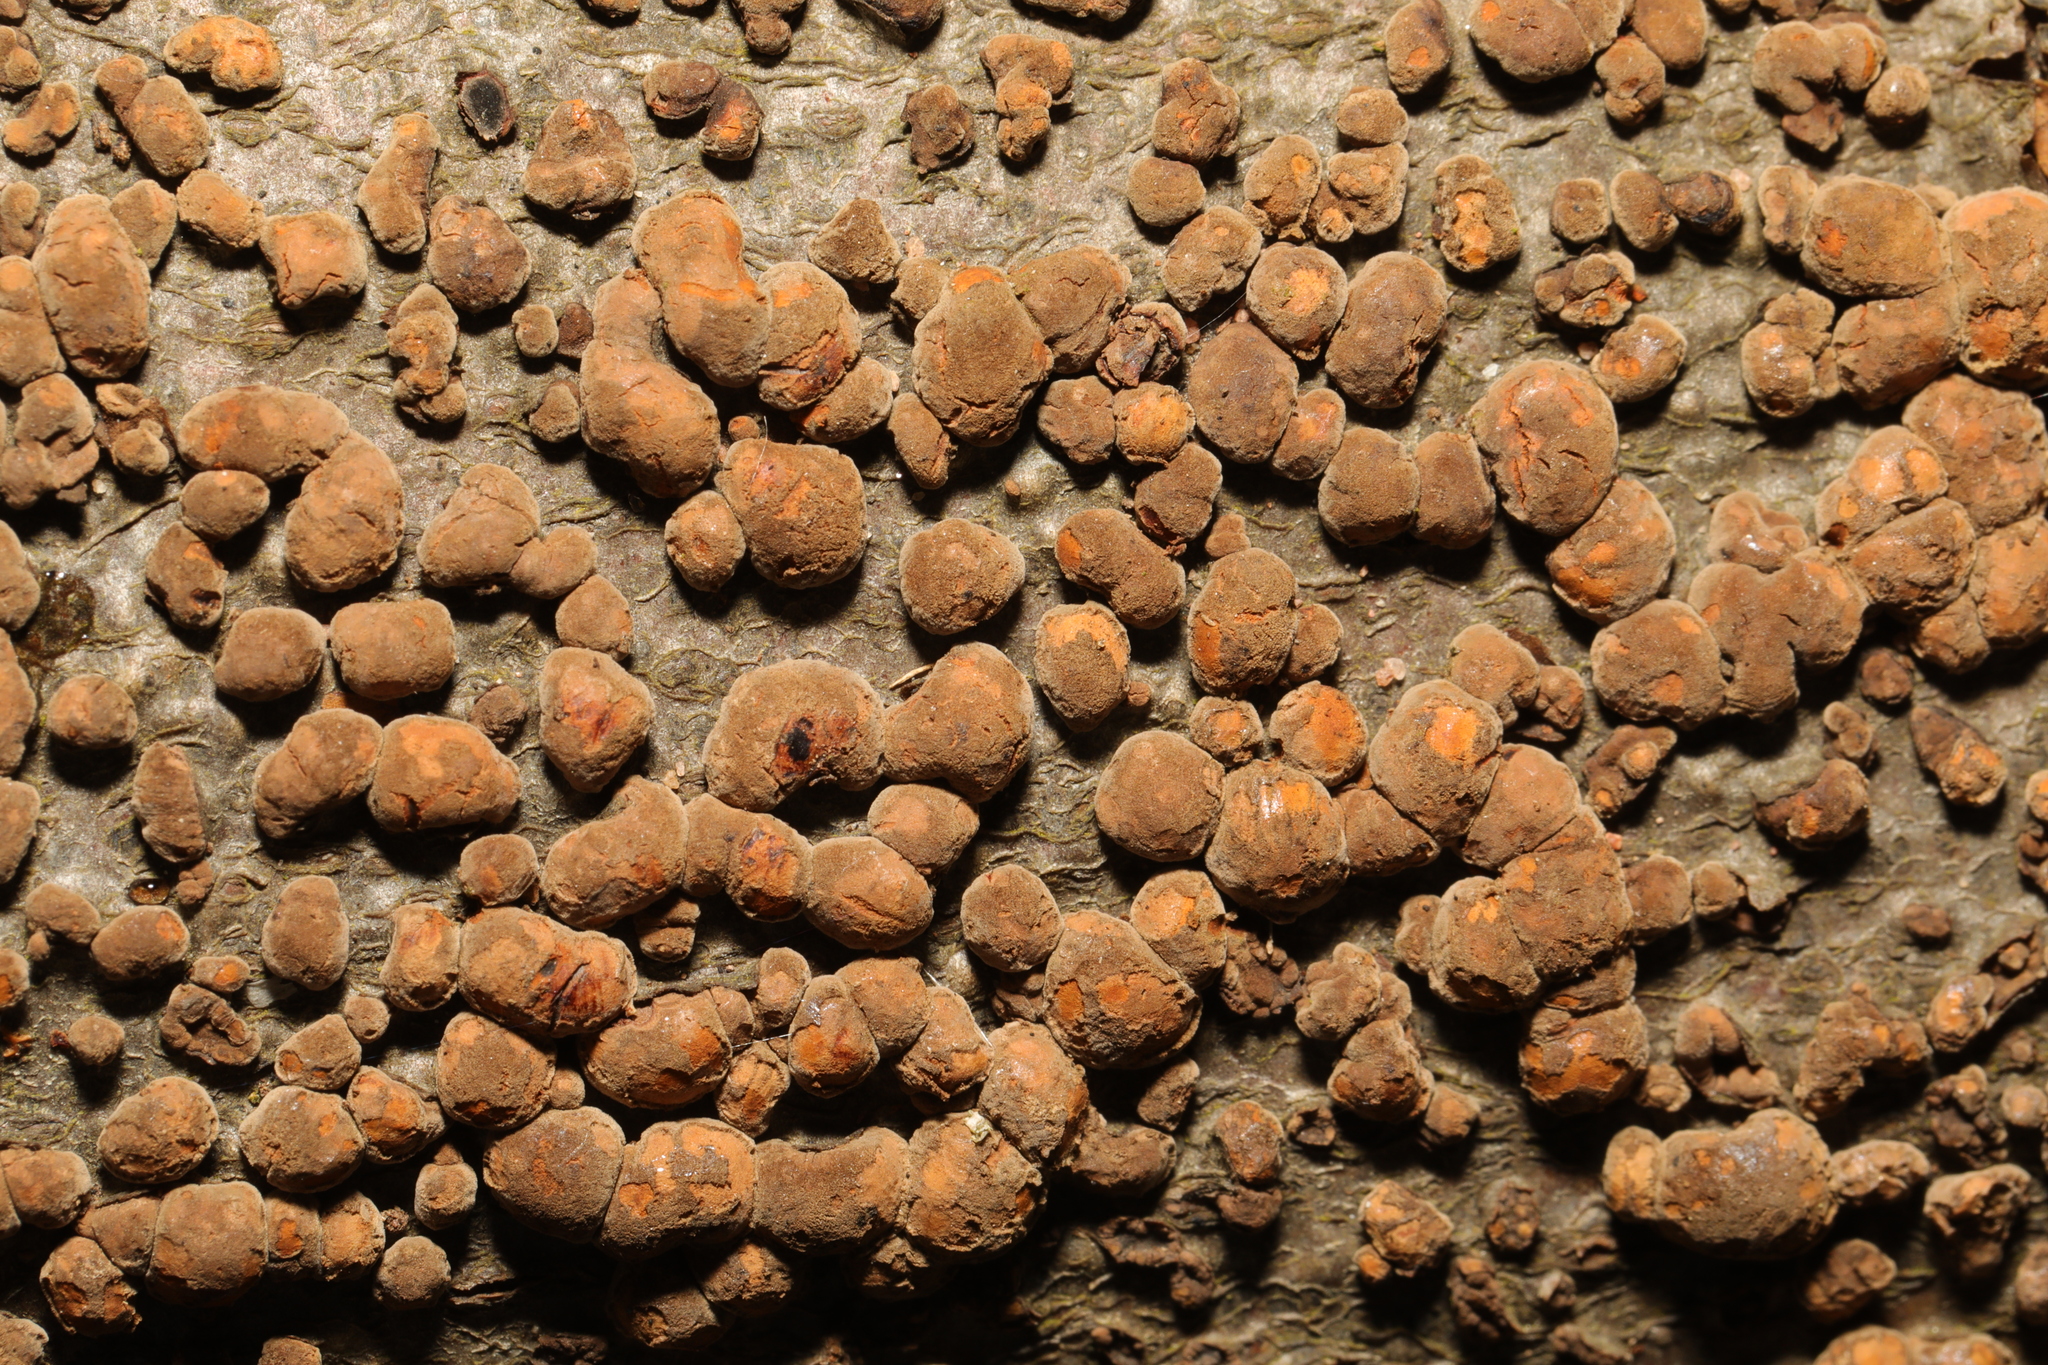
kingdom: Fungi
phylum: Ascomycota
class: Sordariomycetes
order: Xylariales
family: Hypoxylaceae
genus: Hypoxylon
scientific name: Hypoxylon fragiforme
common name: Beech woodwart
